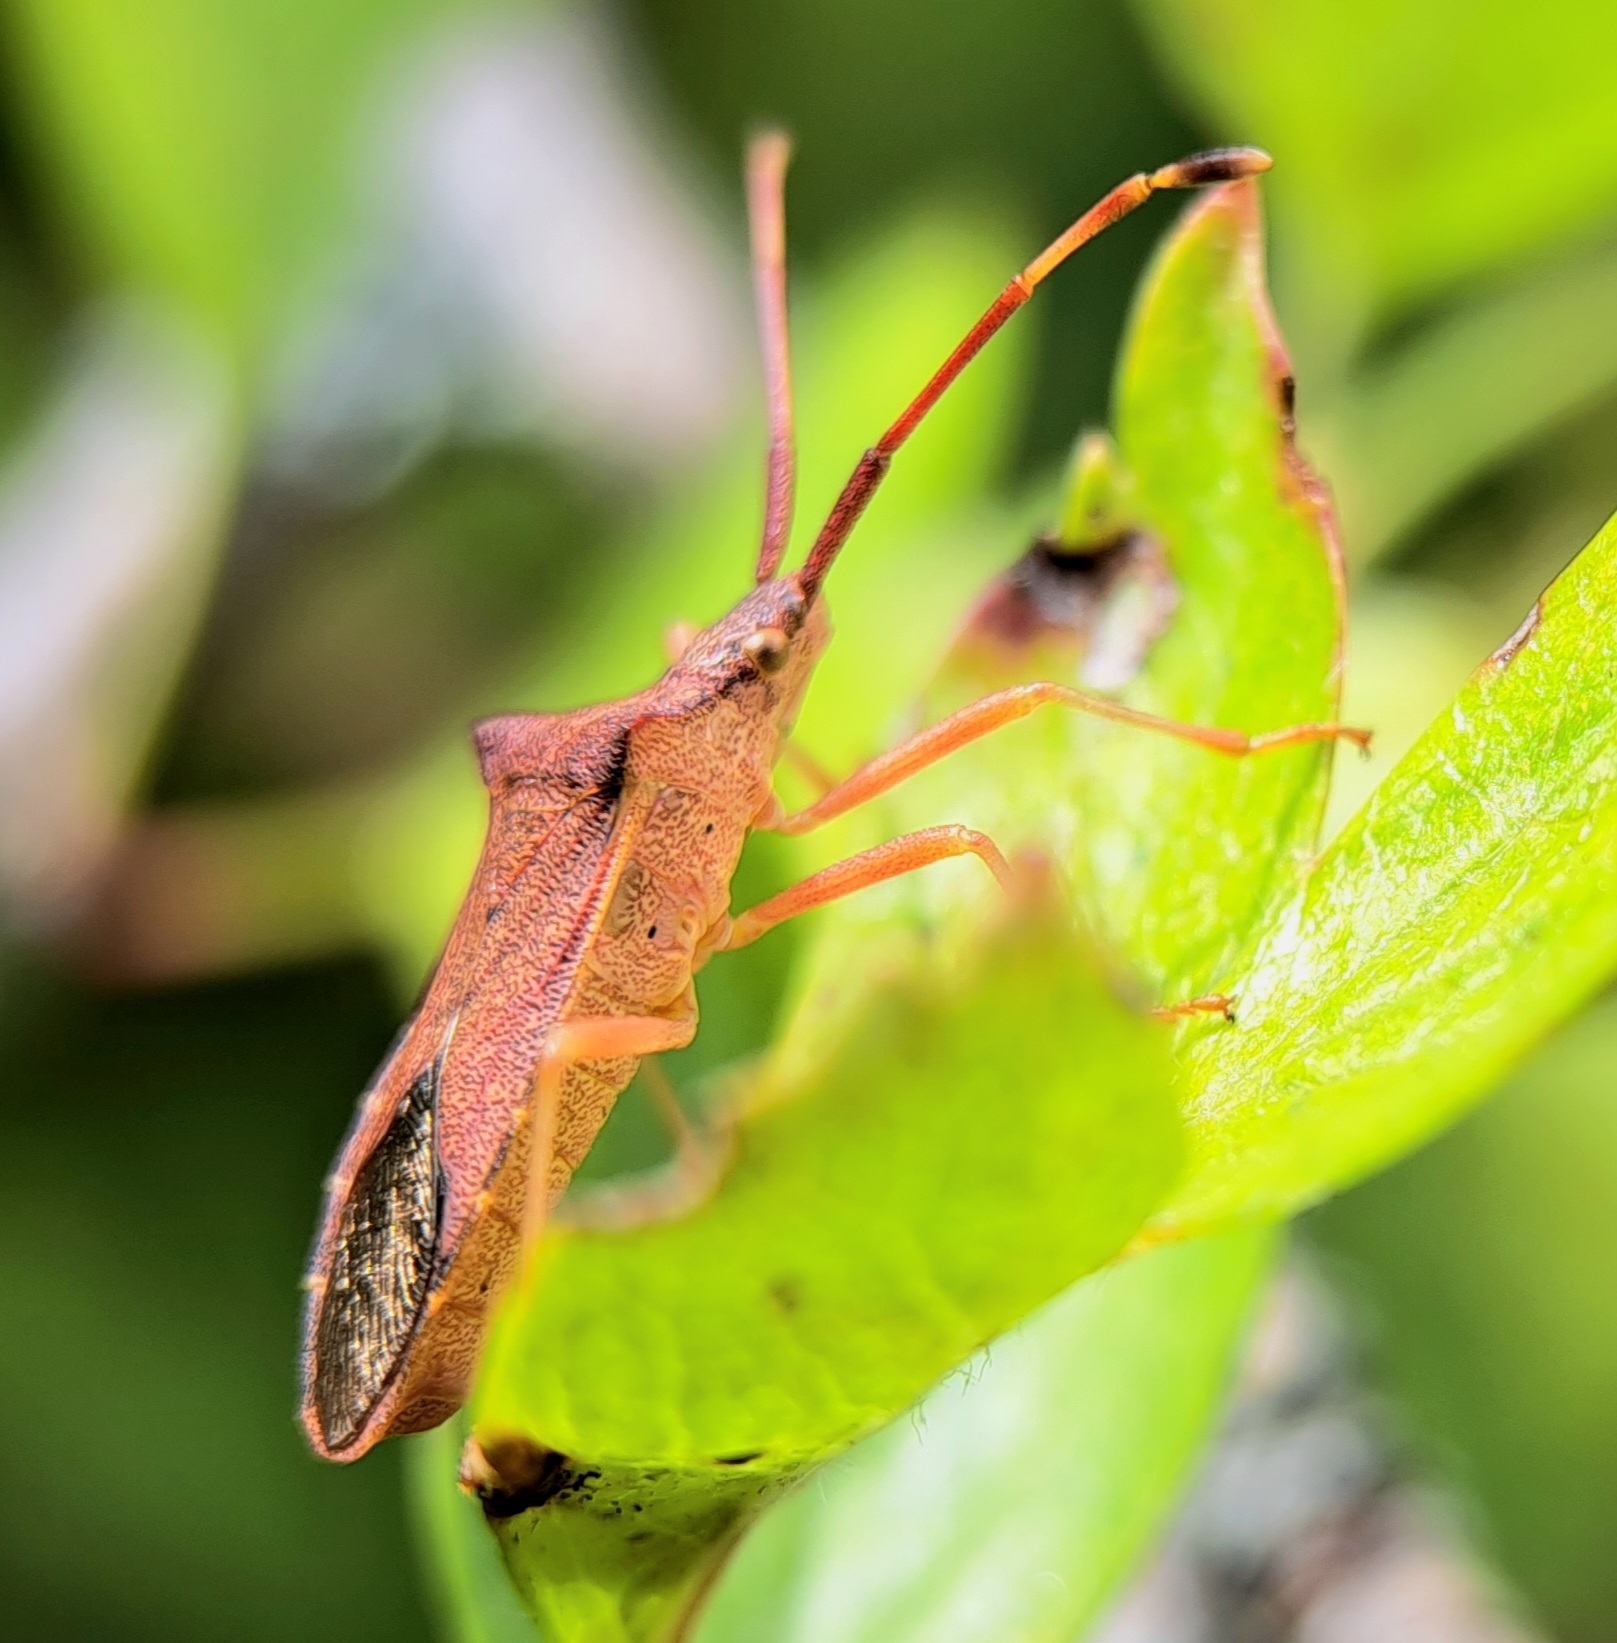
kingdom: Animalia
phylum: Arthropoda
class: Insecta
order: Hemiptera
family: Coreidae
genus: Gonocerus
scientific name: Gonocerus acuteangulatus
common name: Box bug
